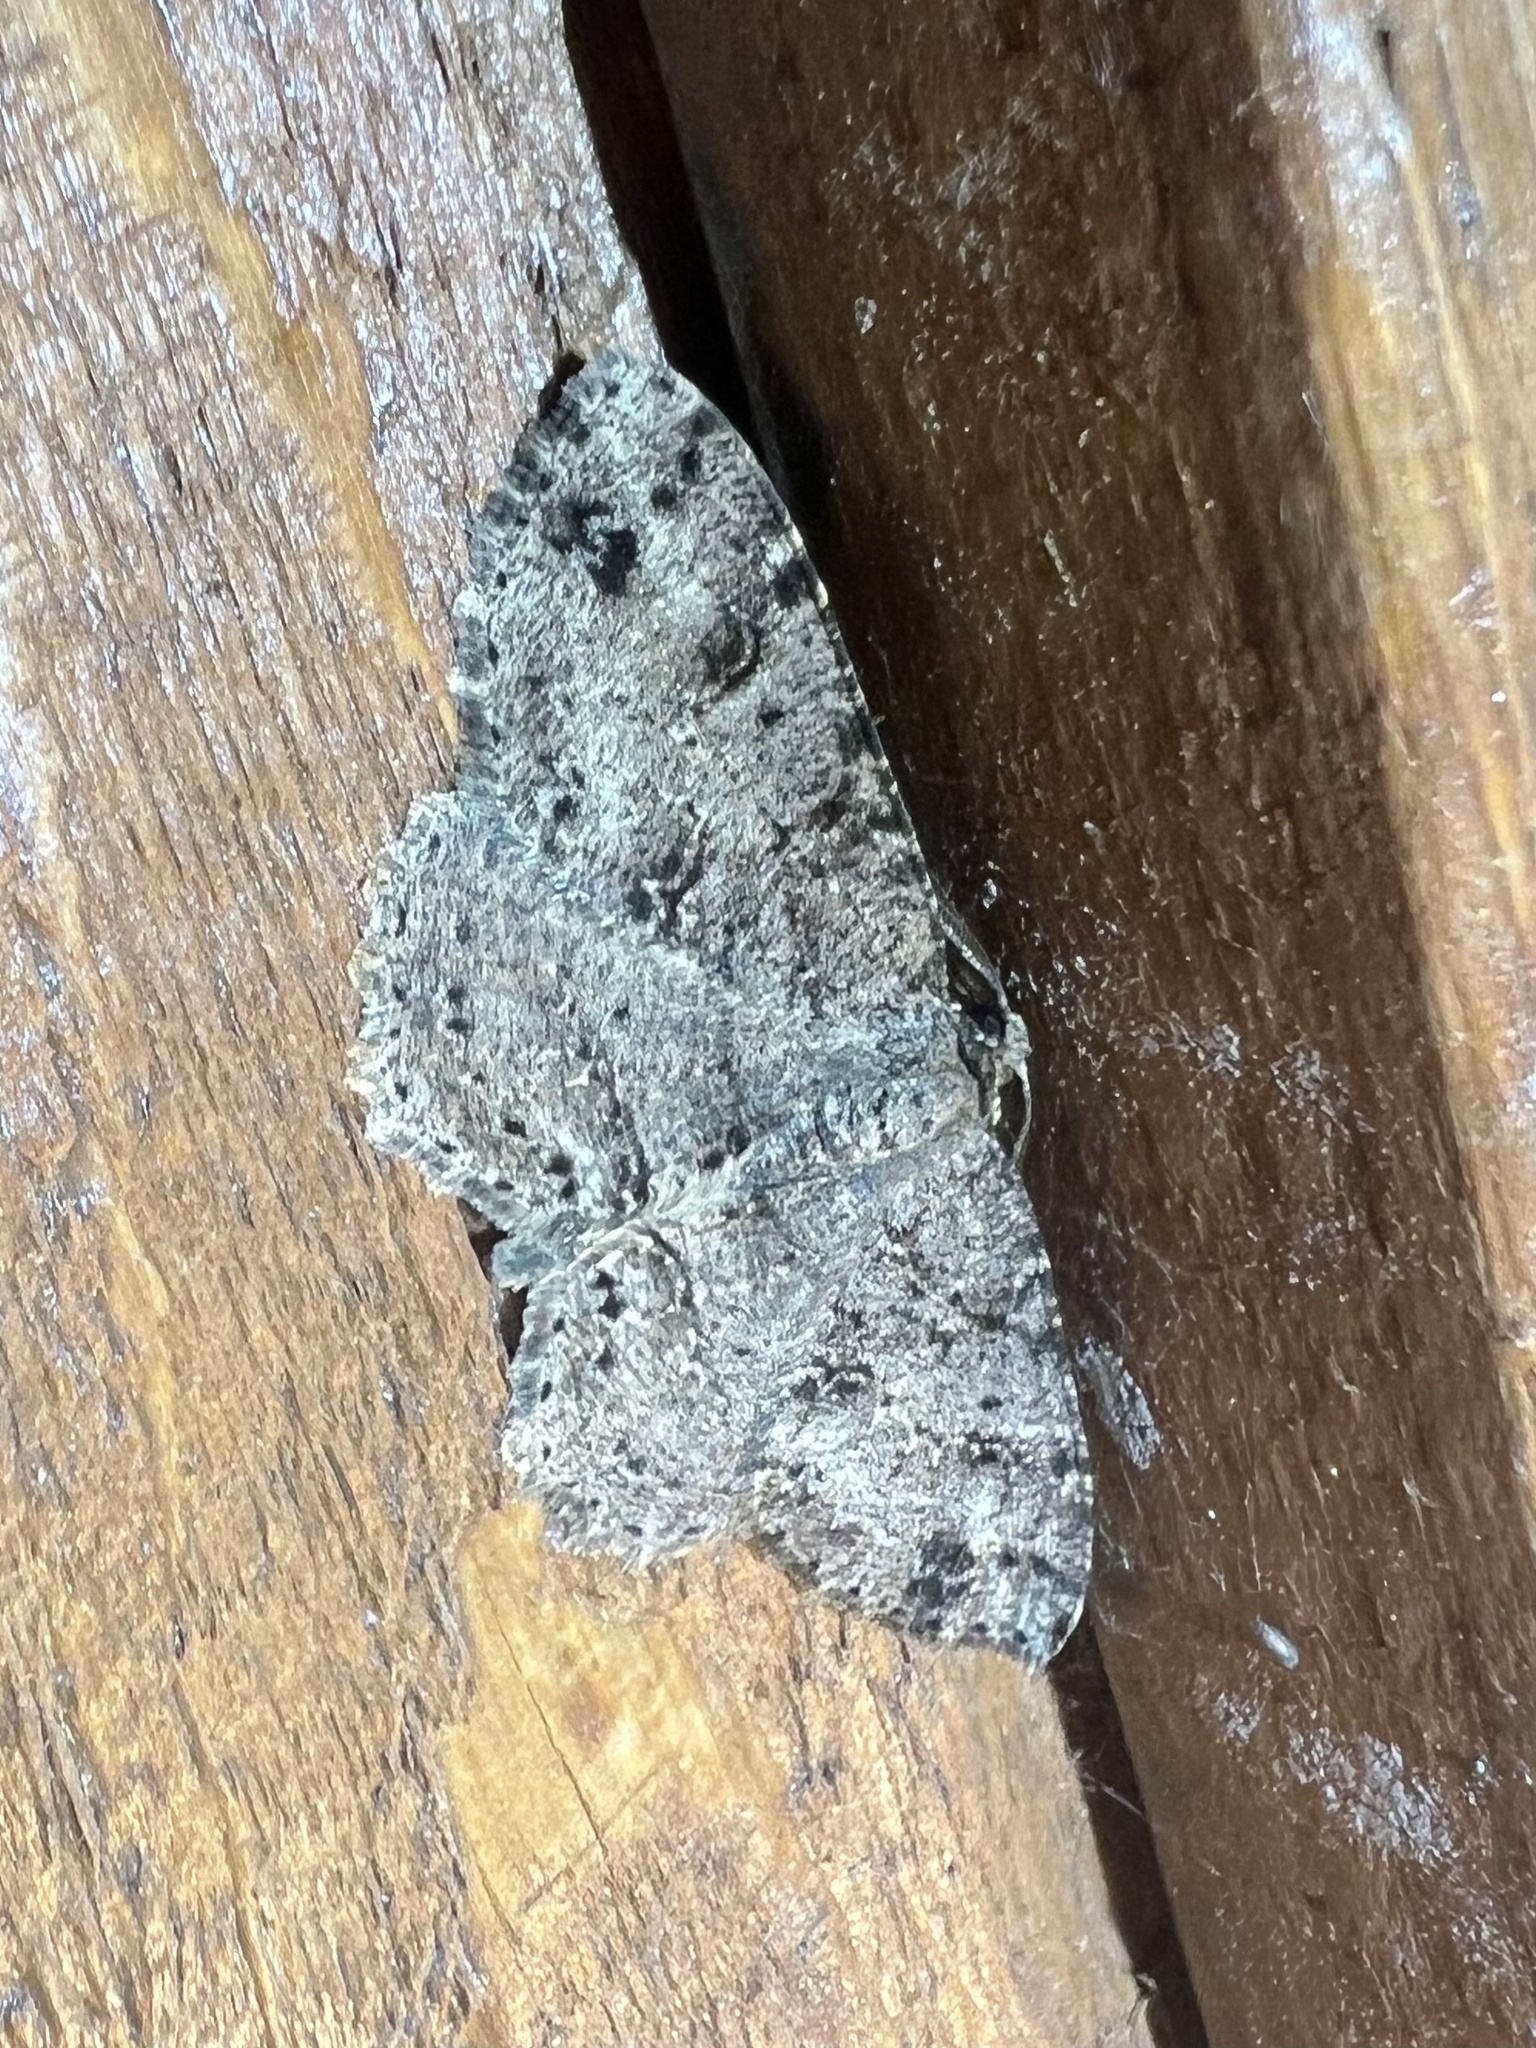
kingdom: Animalia
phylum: Arthropoda
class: Insecta
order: Lepidoptera
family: Geometridae
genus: Melanolophia
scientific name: Melanolophia canadaria
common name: Canadian melanolophia
